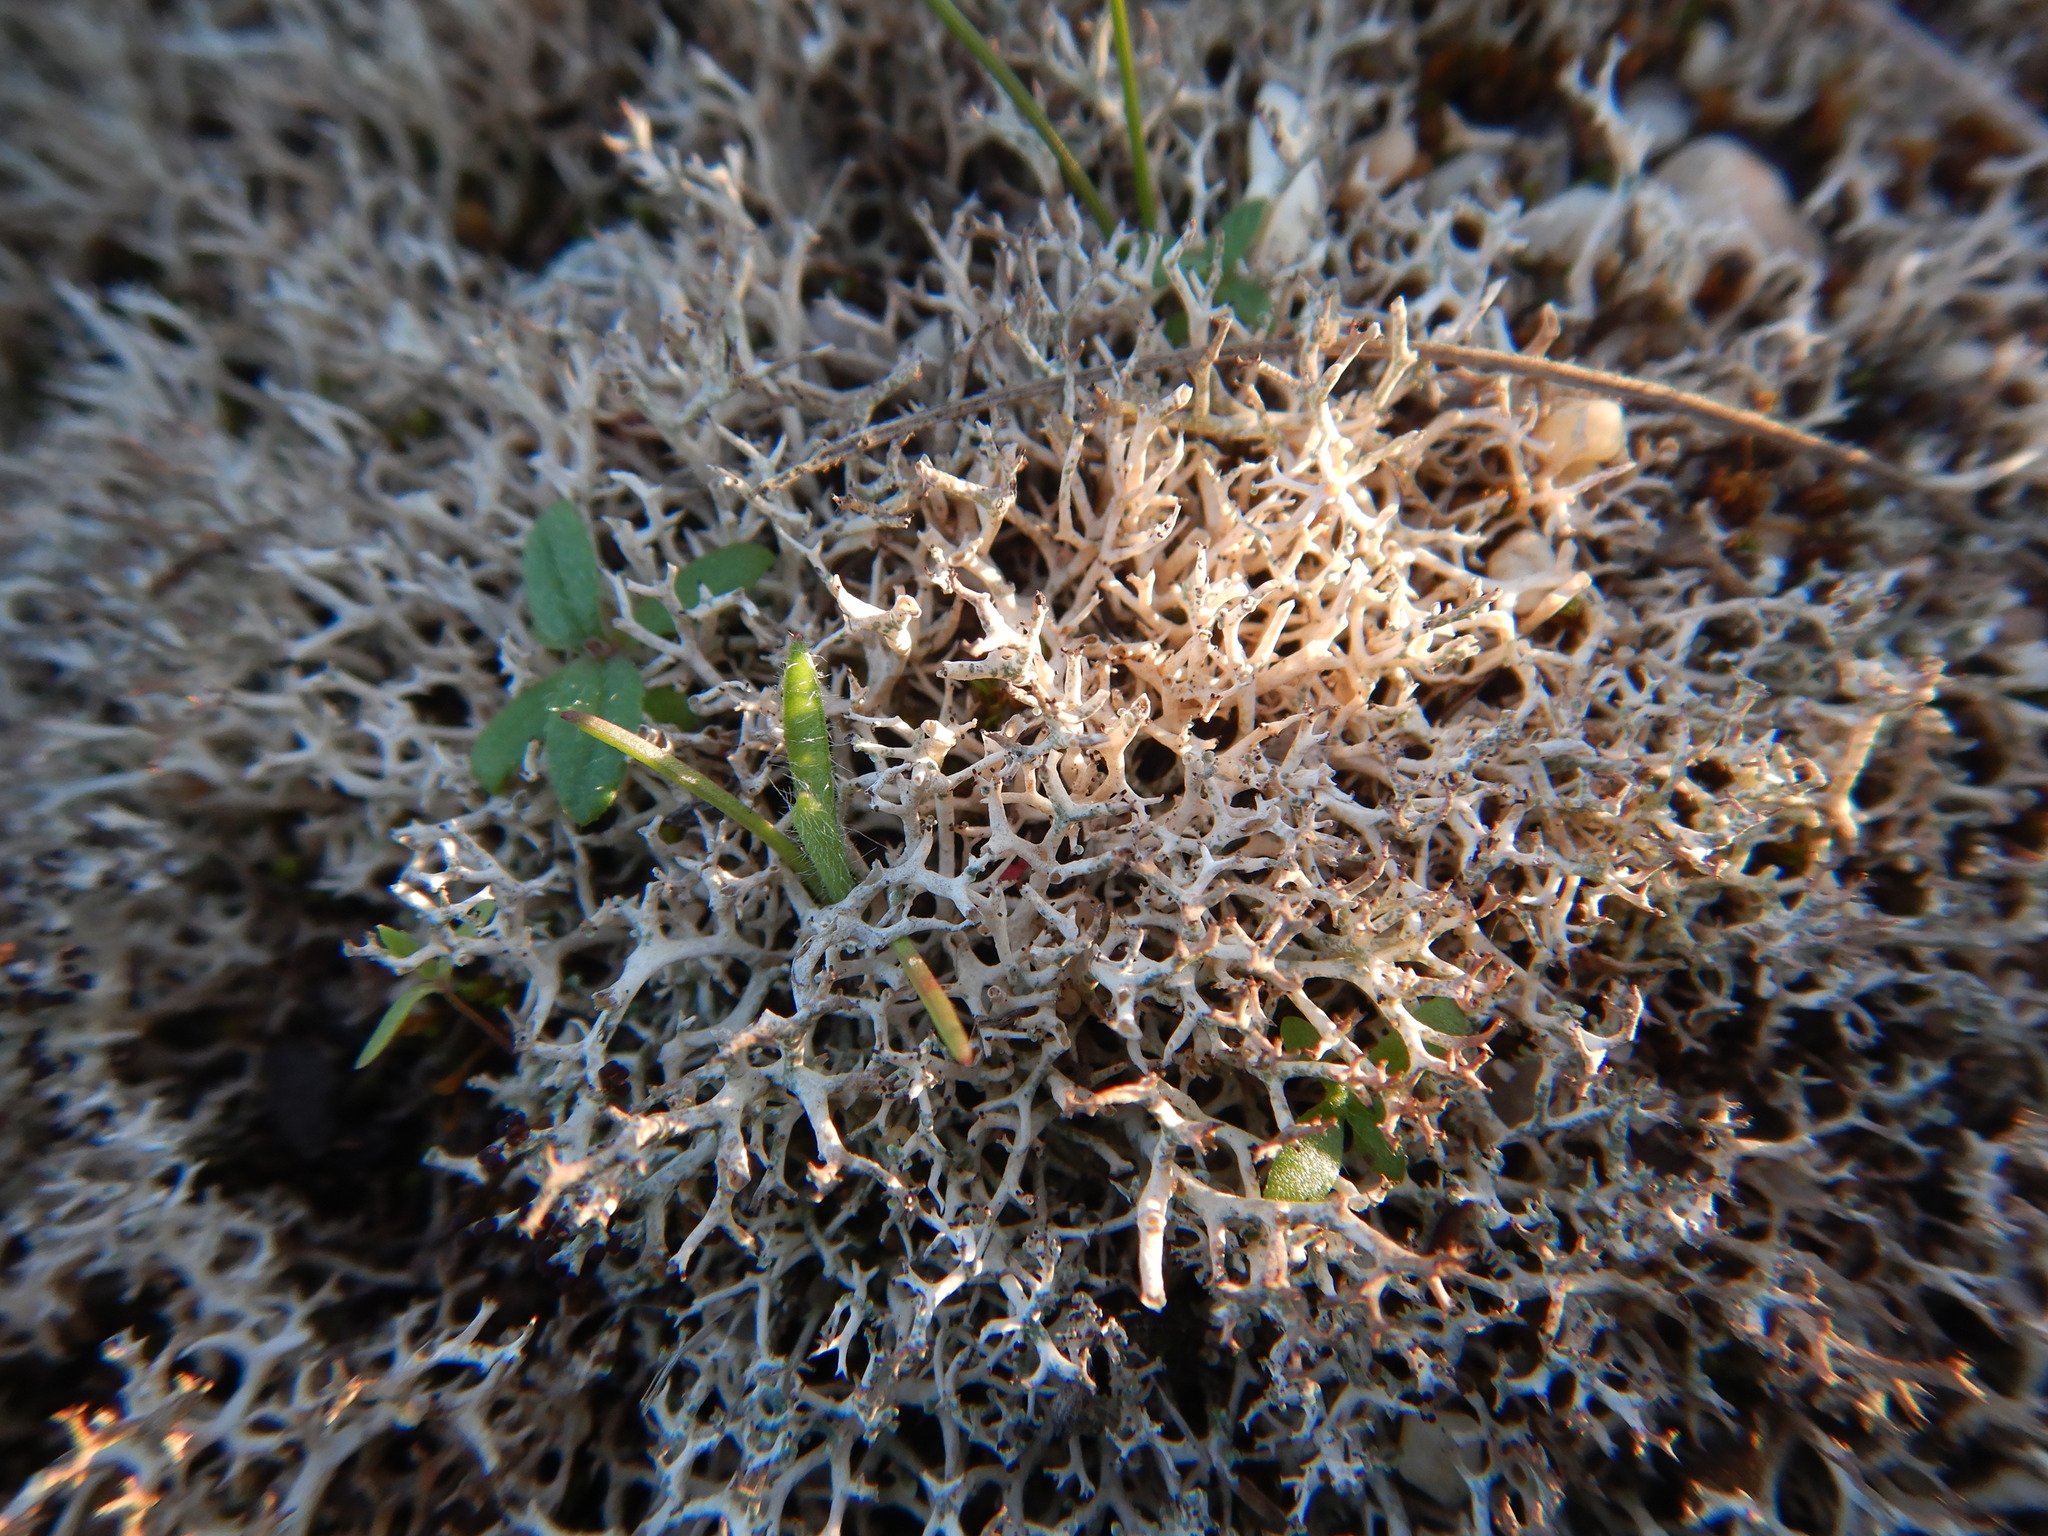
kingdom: Fungi
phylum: Ascomycota
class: Lecanoromycetes
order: Lecanorales
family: Cladoniaceae
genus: Cladonia
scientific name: Cladonia rangiformis
